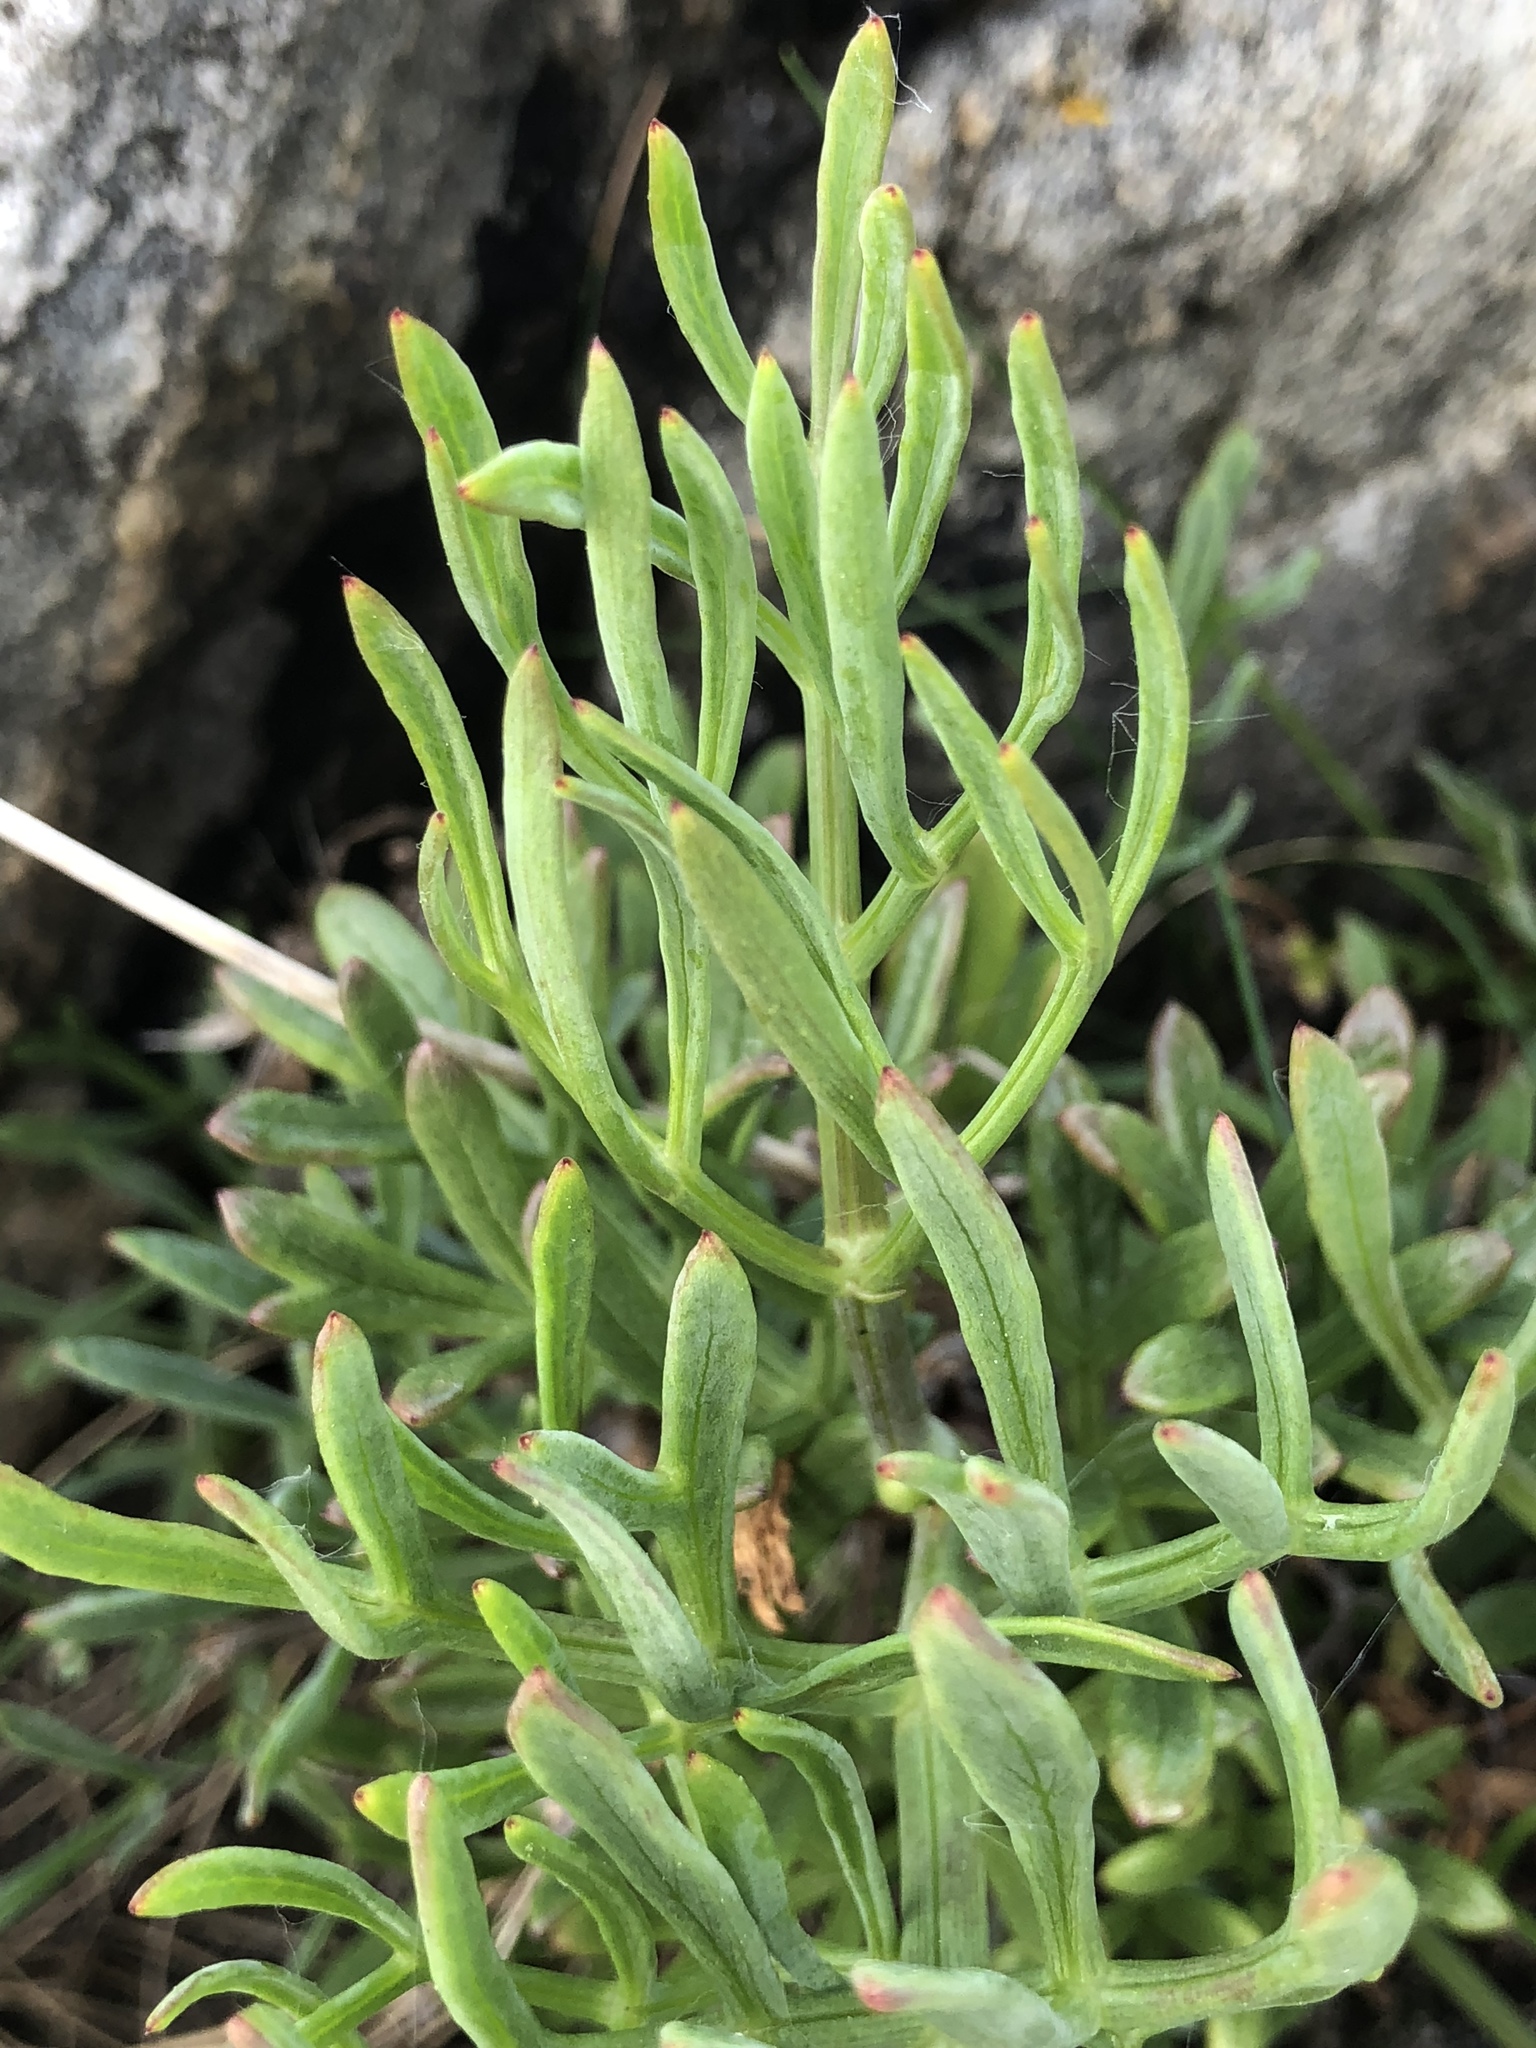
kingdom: Plantae
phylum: Tracheophyta
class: Magnoliopsida
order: Apiales
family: Apiaceae
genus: Crithmum
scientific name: Crithmum maritimum
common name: Rock samphire
